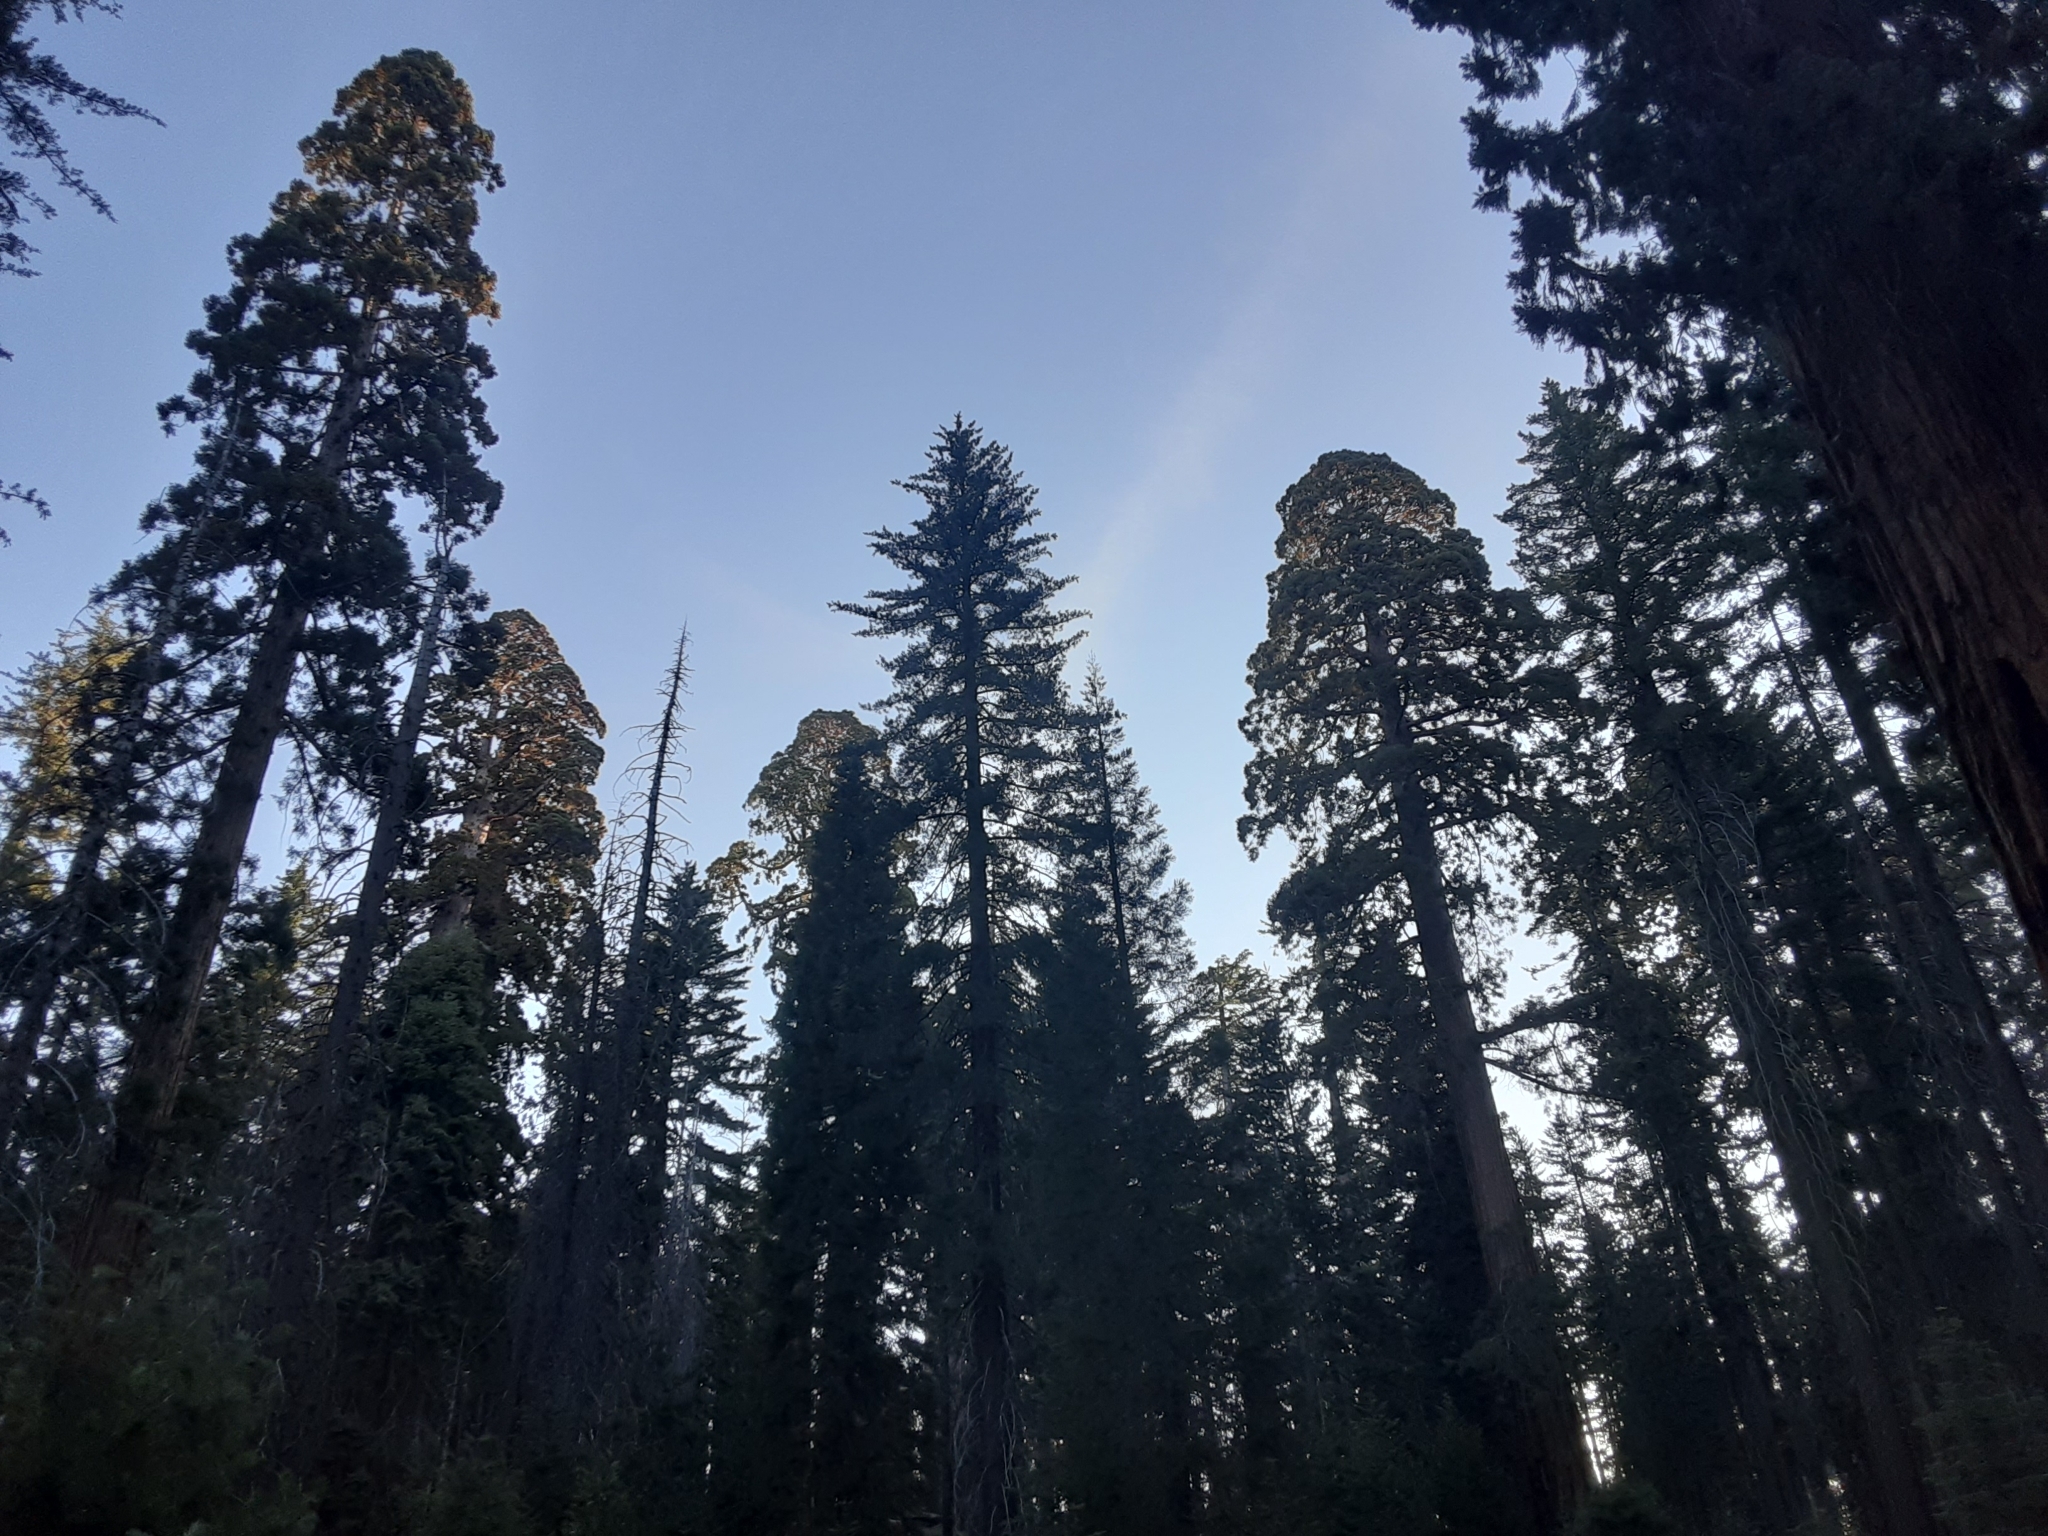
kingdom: Plantae
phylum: Tracheophyta
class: Pinopsida
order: Pinales
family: Cupressaceae
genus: Sequoiadendron
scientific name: Sequoiadendron giganteum
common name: Wellingtonia
